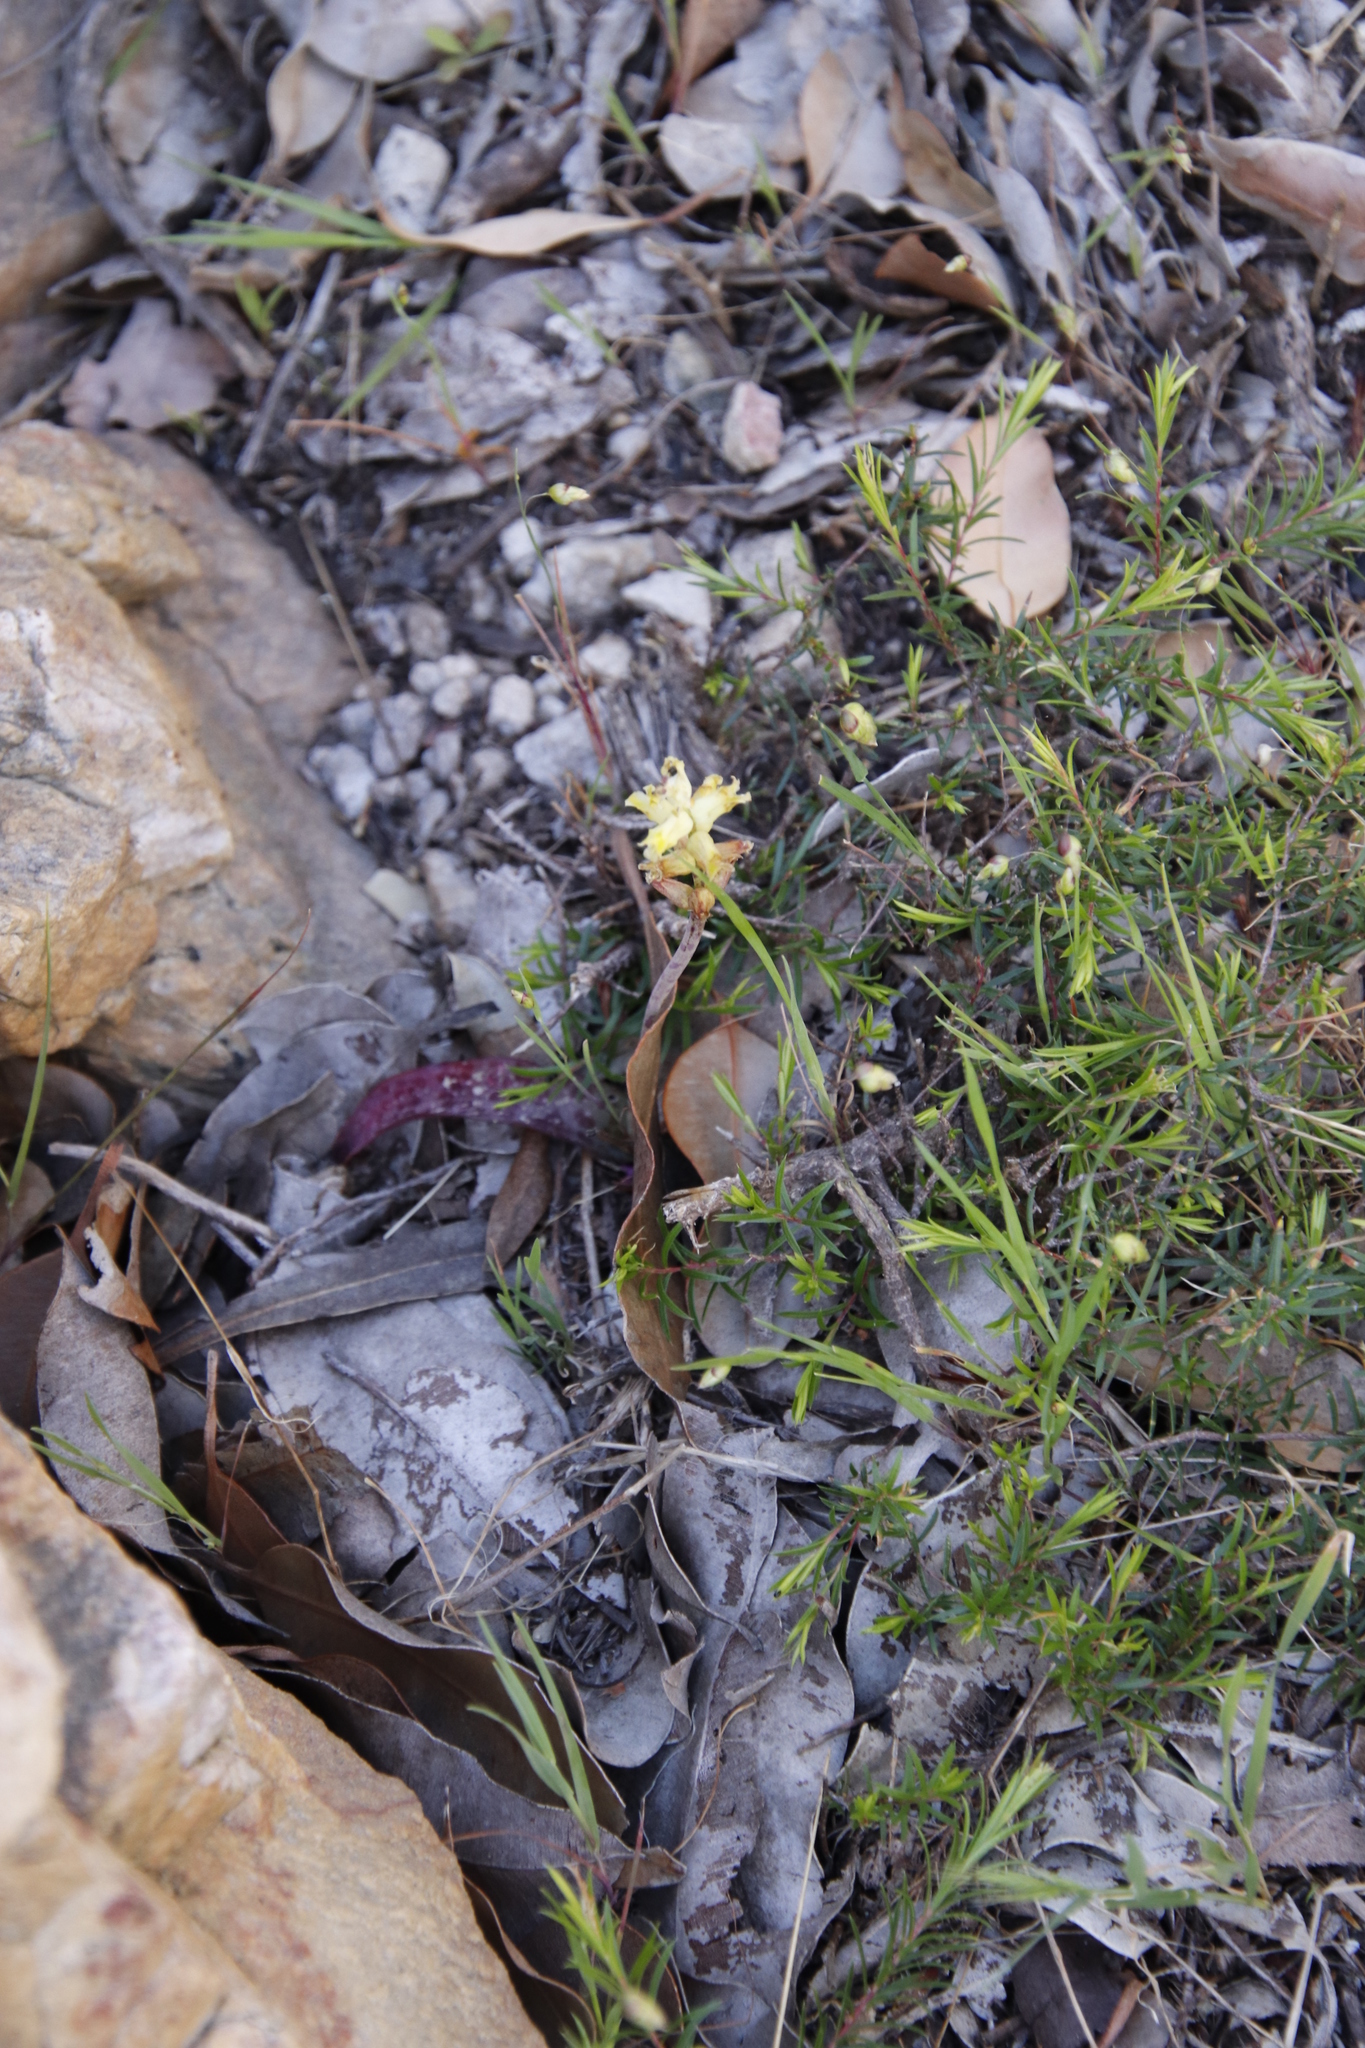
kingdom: Plantae
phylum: Tracheophyta
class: Liliopsida
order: Asparagales
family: Asparagaceae
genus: Lachenalia
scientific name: Lachenalia lutea
